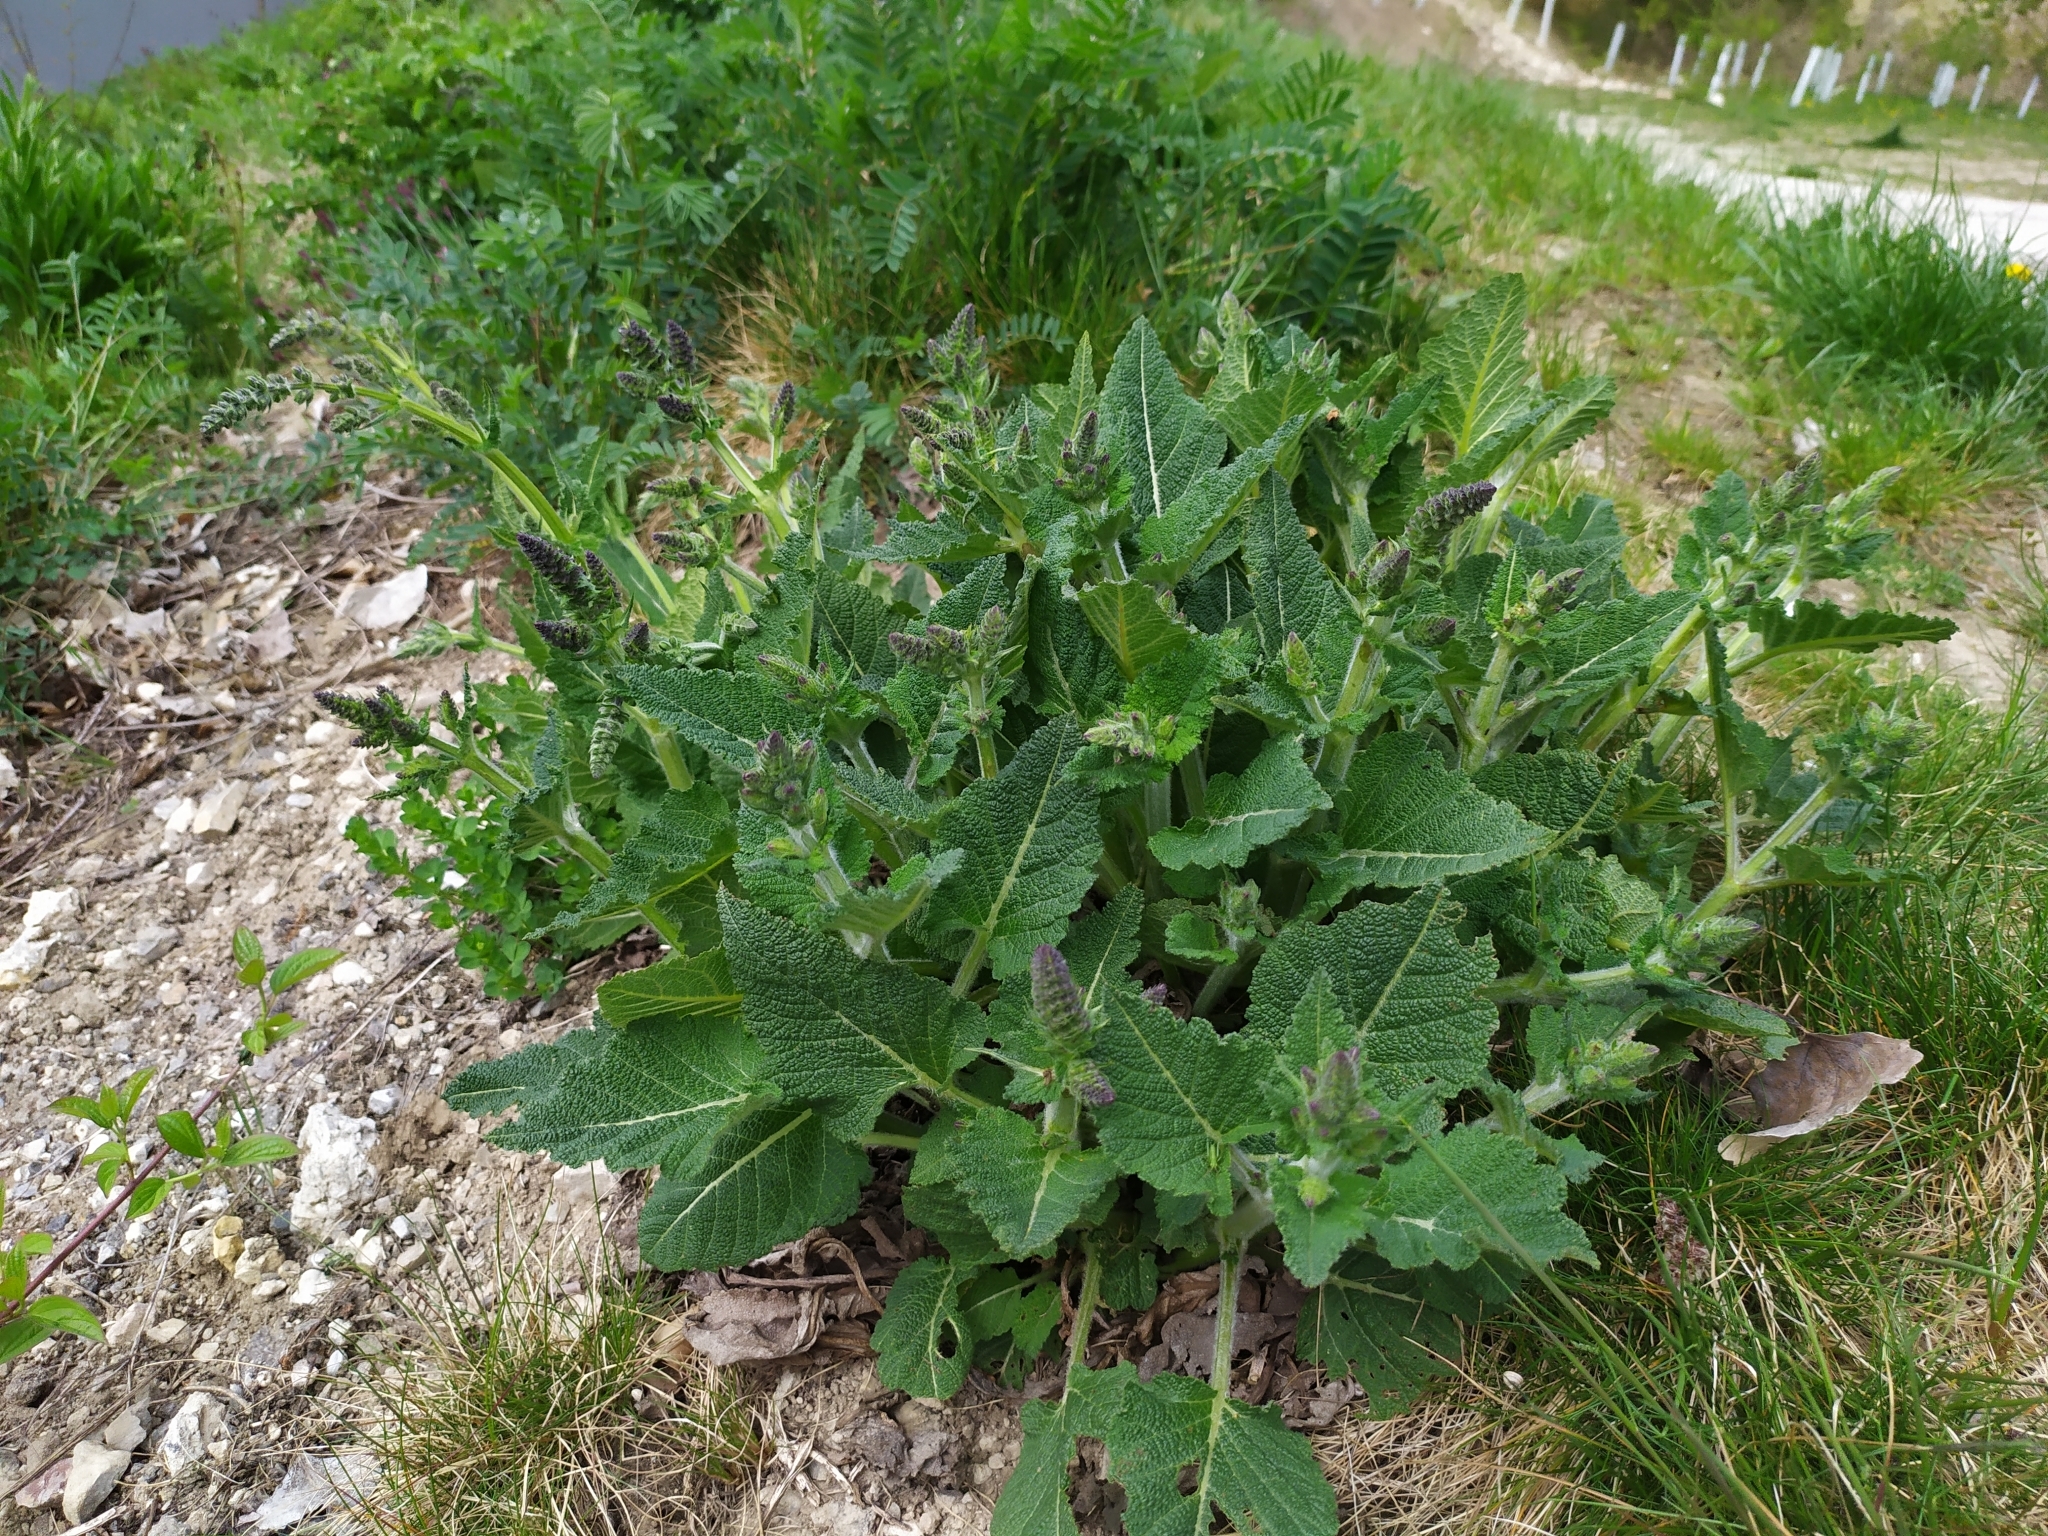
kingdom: Plantae
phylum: Tracheophyta
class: Magnoliopsida
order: Lamiales
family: Lamiaceae
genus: Salvia
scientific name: Salvia pratensis
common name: Meadow sage
